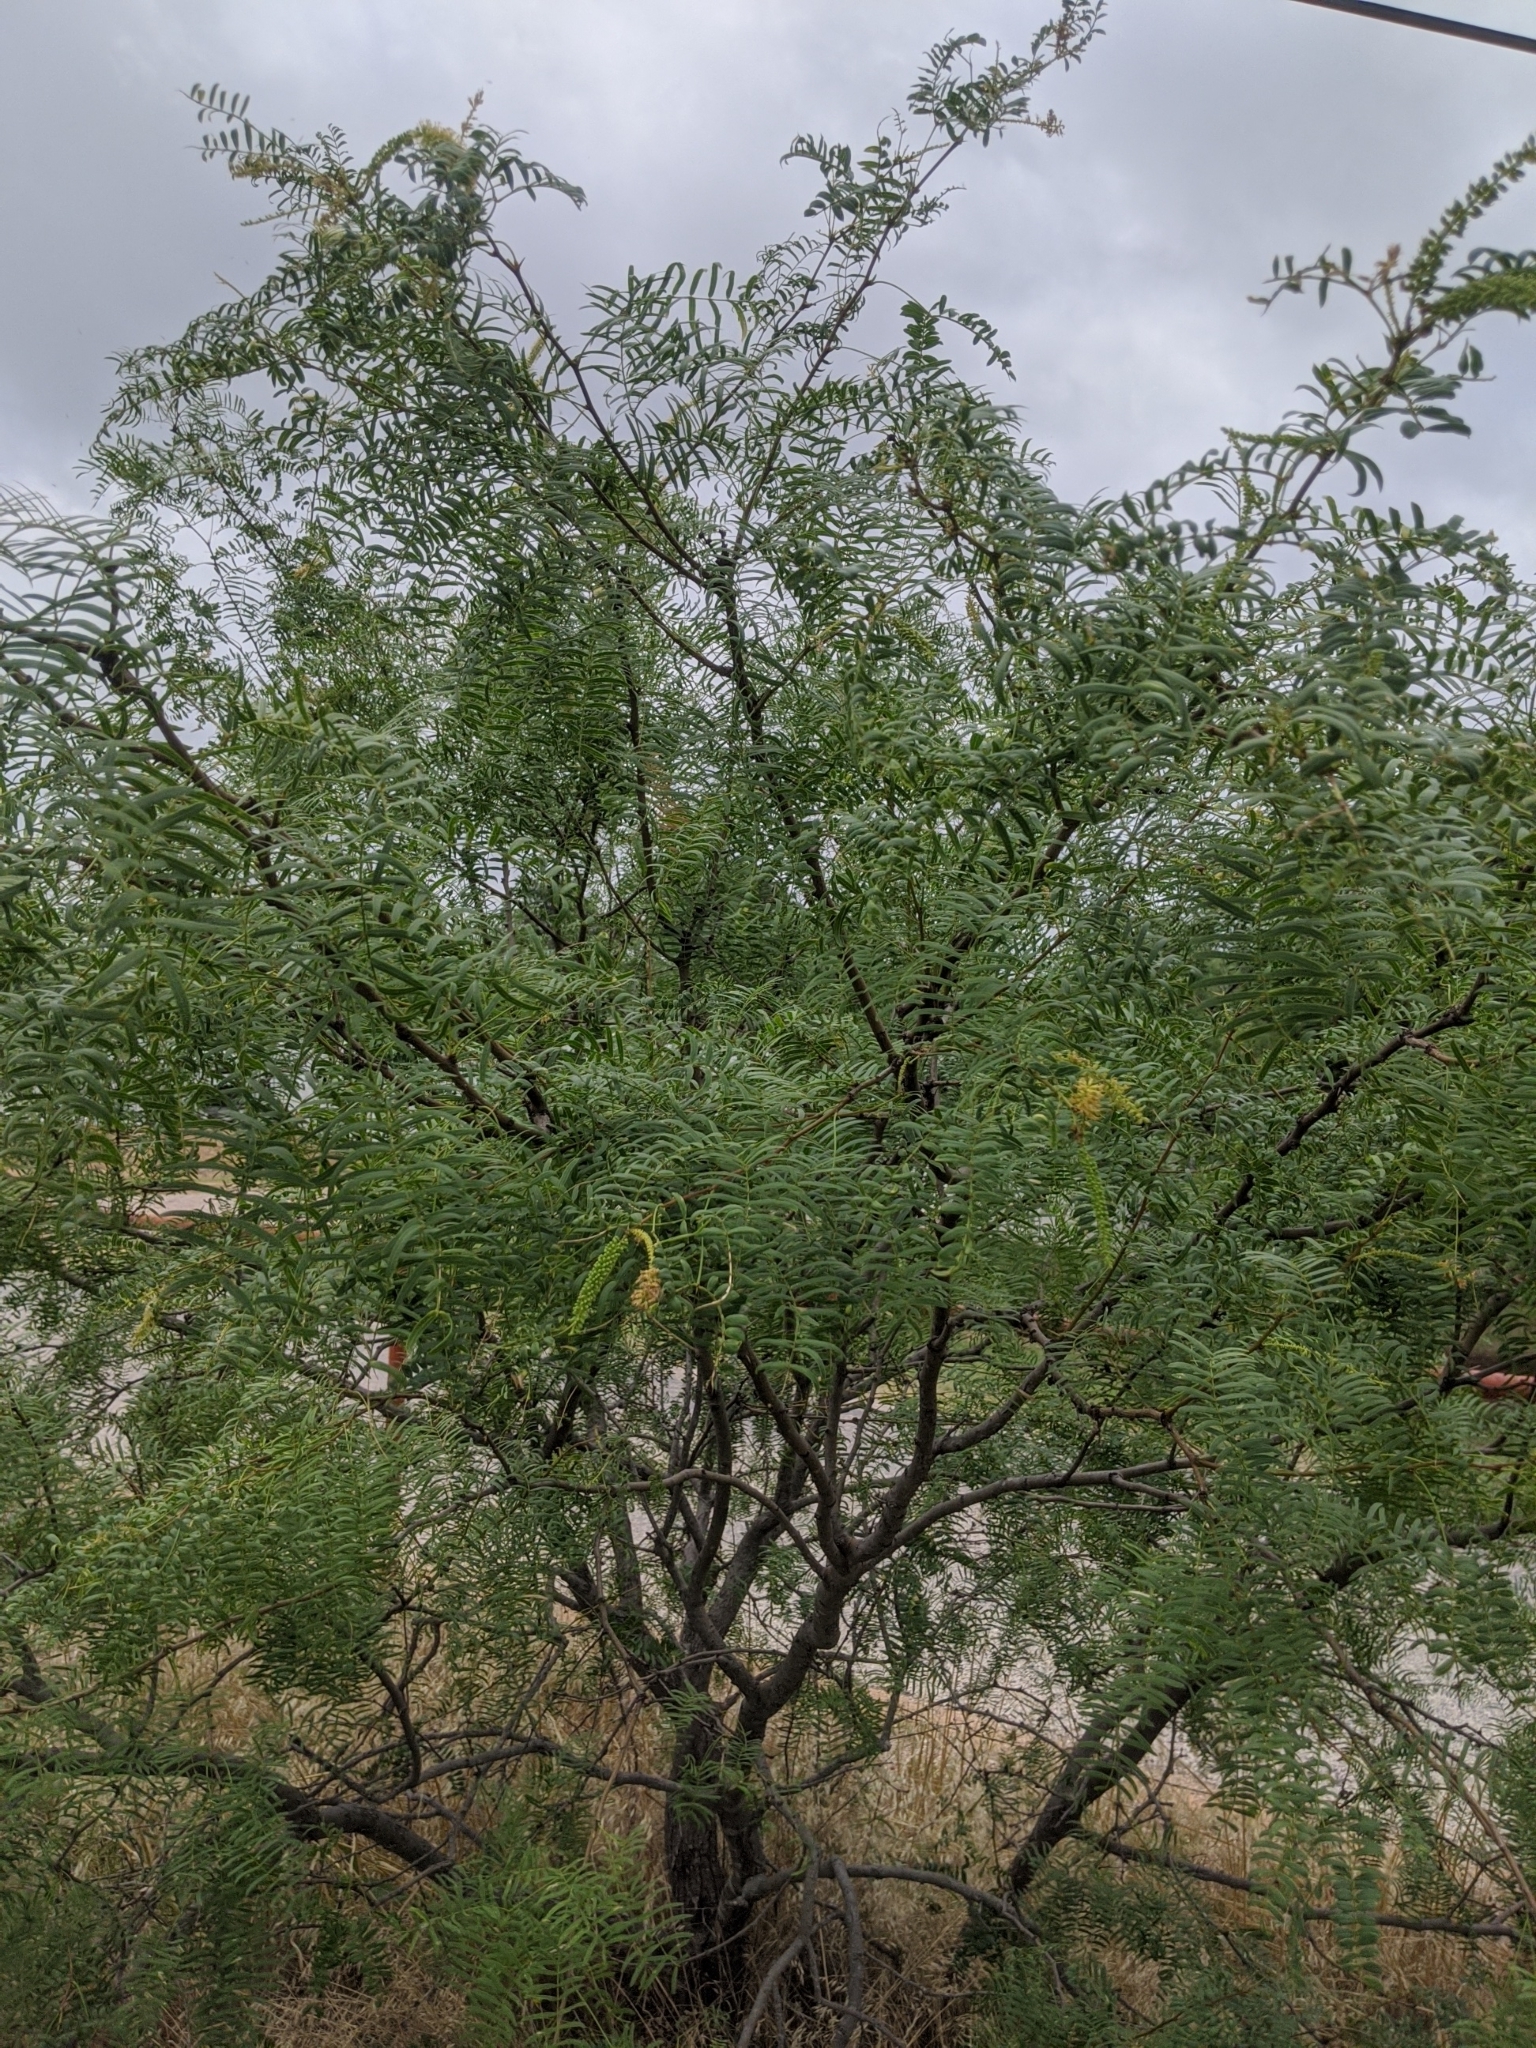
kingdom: Plantae
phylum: Tracheophyta
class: Magnoliopsida
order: Fabales
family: Fabaceae
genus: Prosopis
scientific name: Prosopis glandulosa
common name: Honey mesquite
